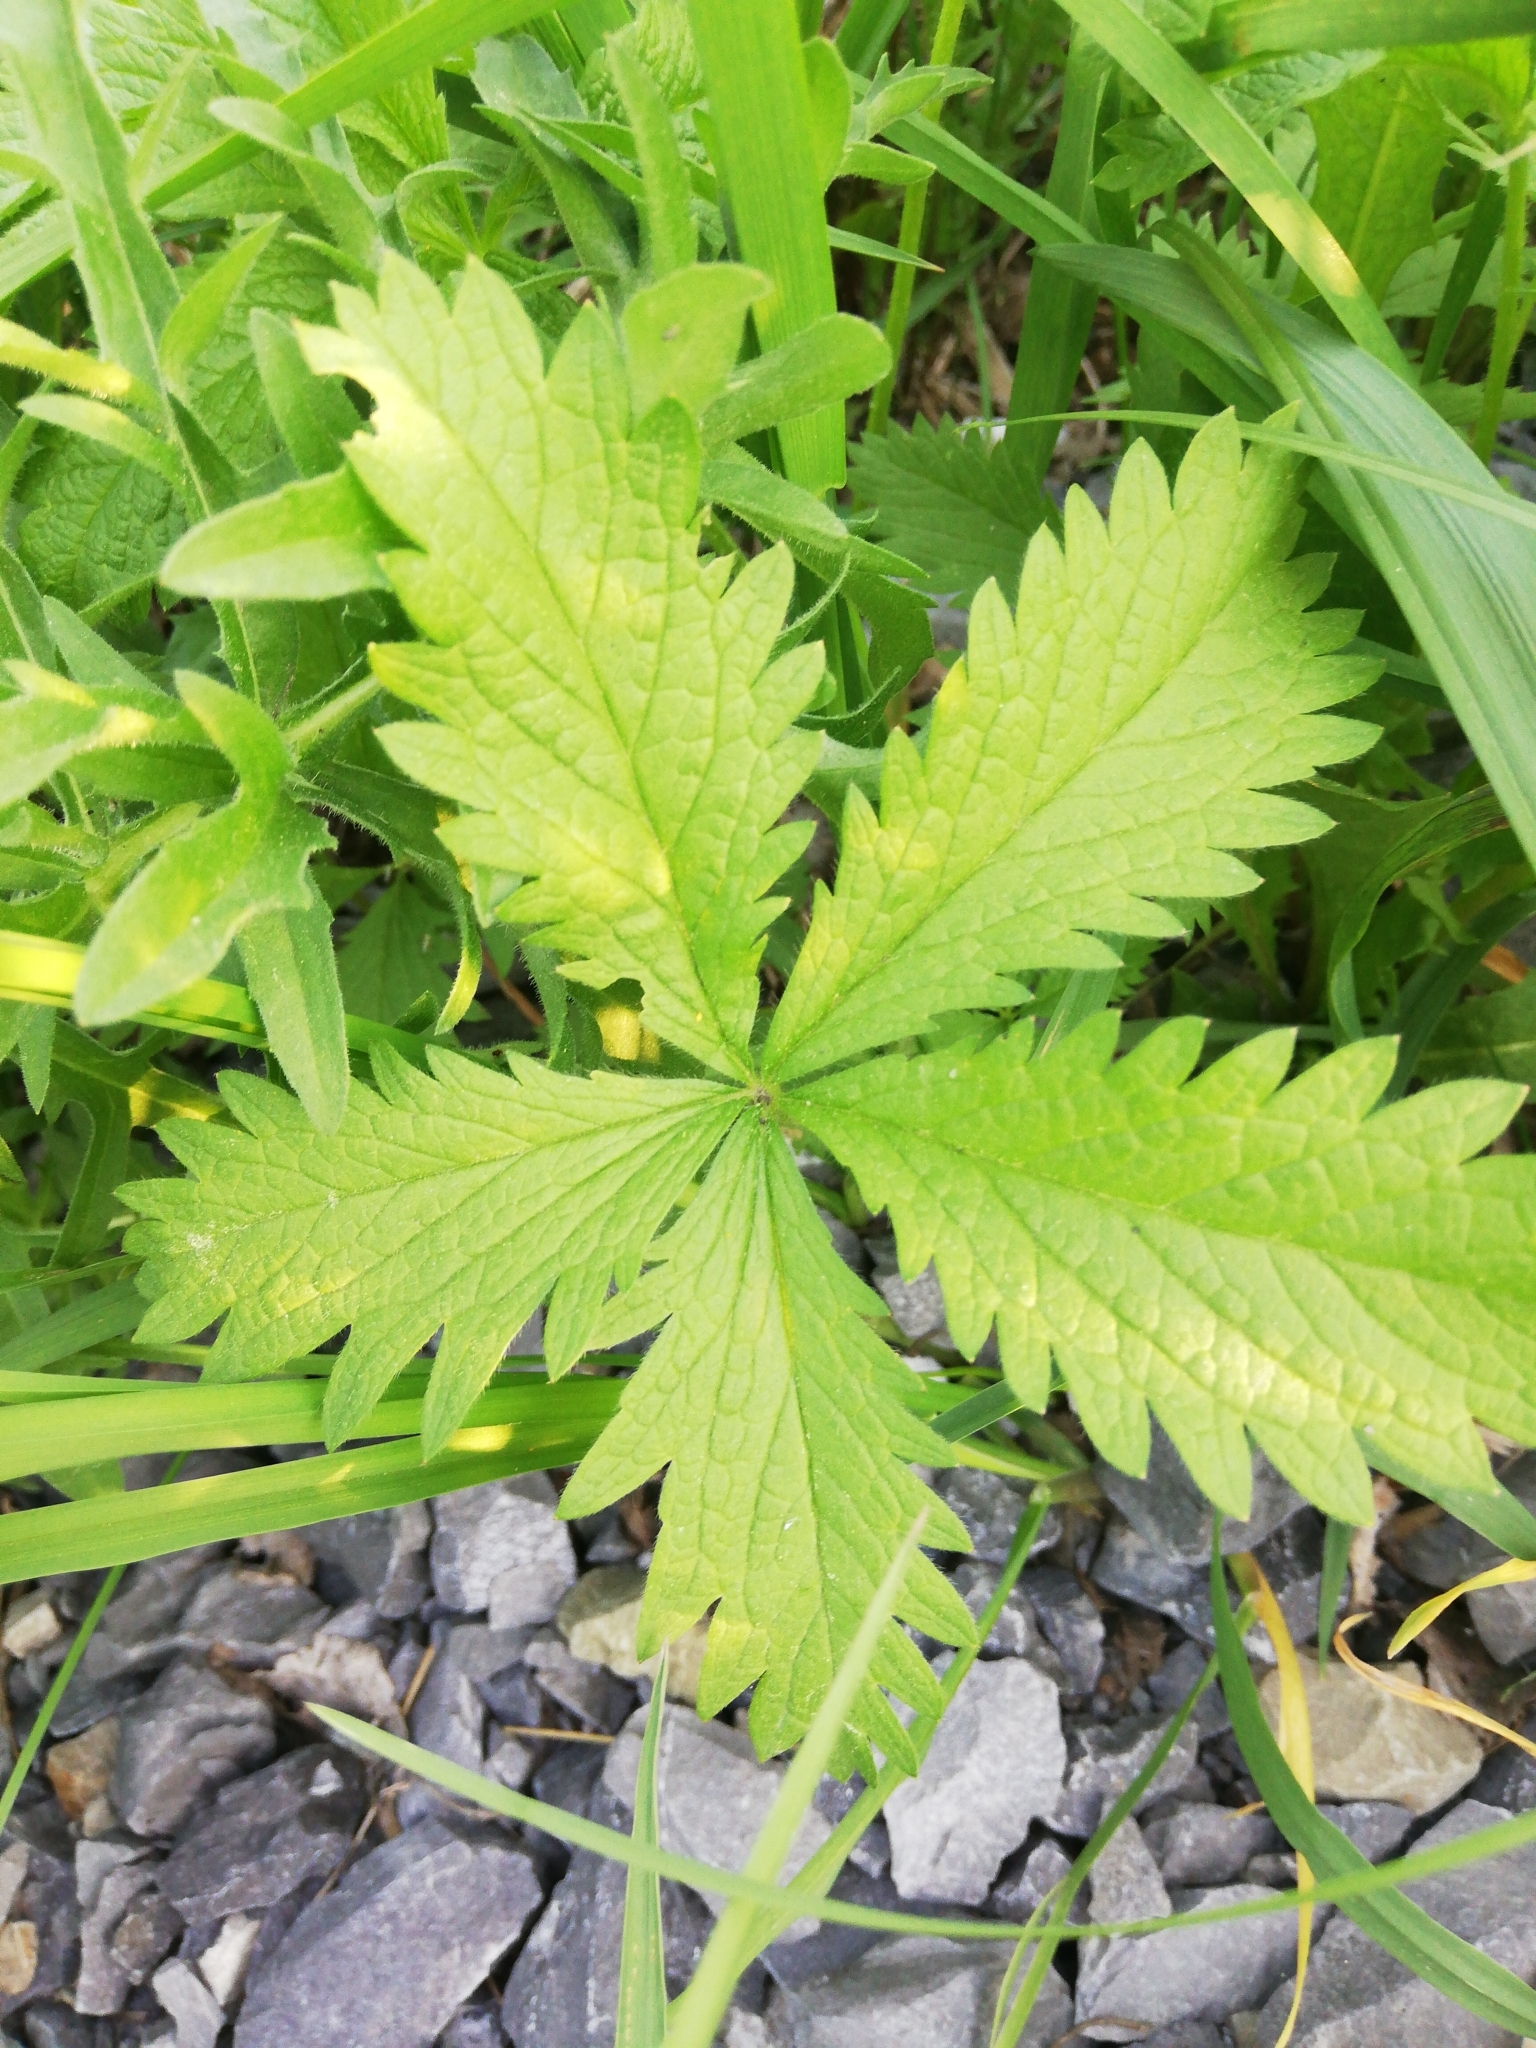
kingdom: Plantae
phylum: Tracheophyta
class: Magnoliopsida
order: Rosales
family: Rosaceae
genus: Potentilla
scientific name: Potentilla chrysantha
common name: Thuringian cinquefoil
